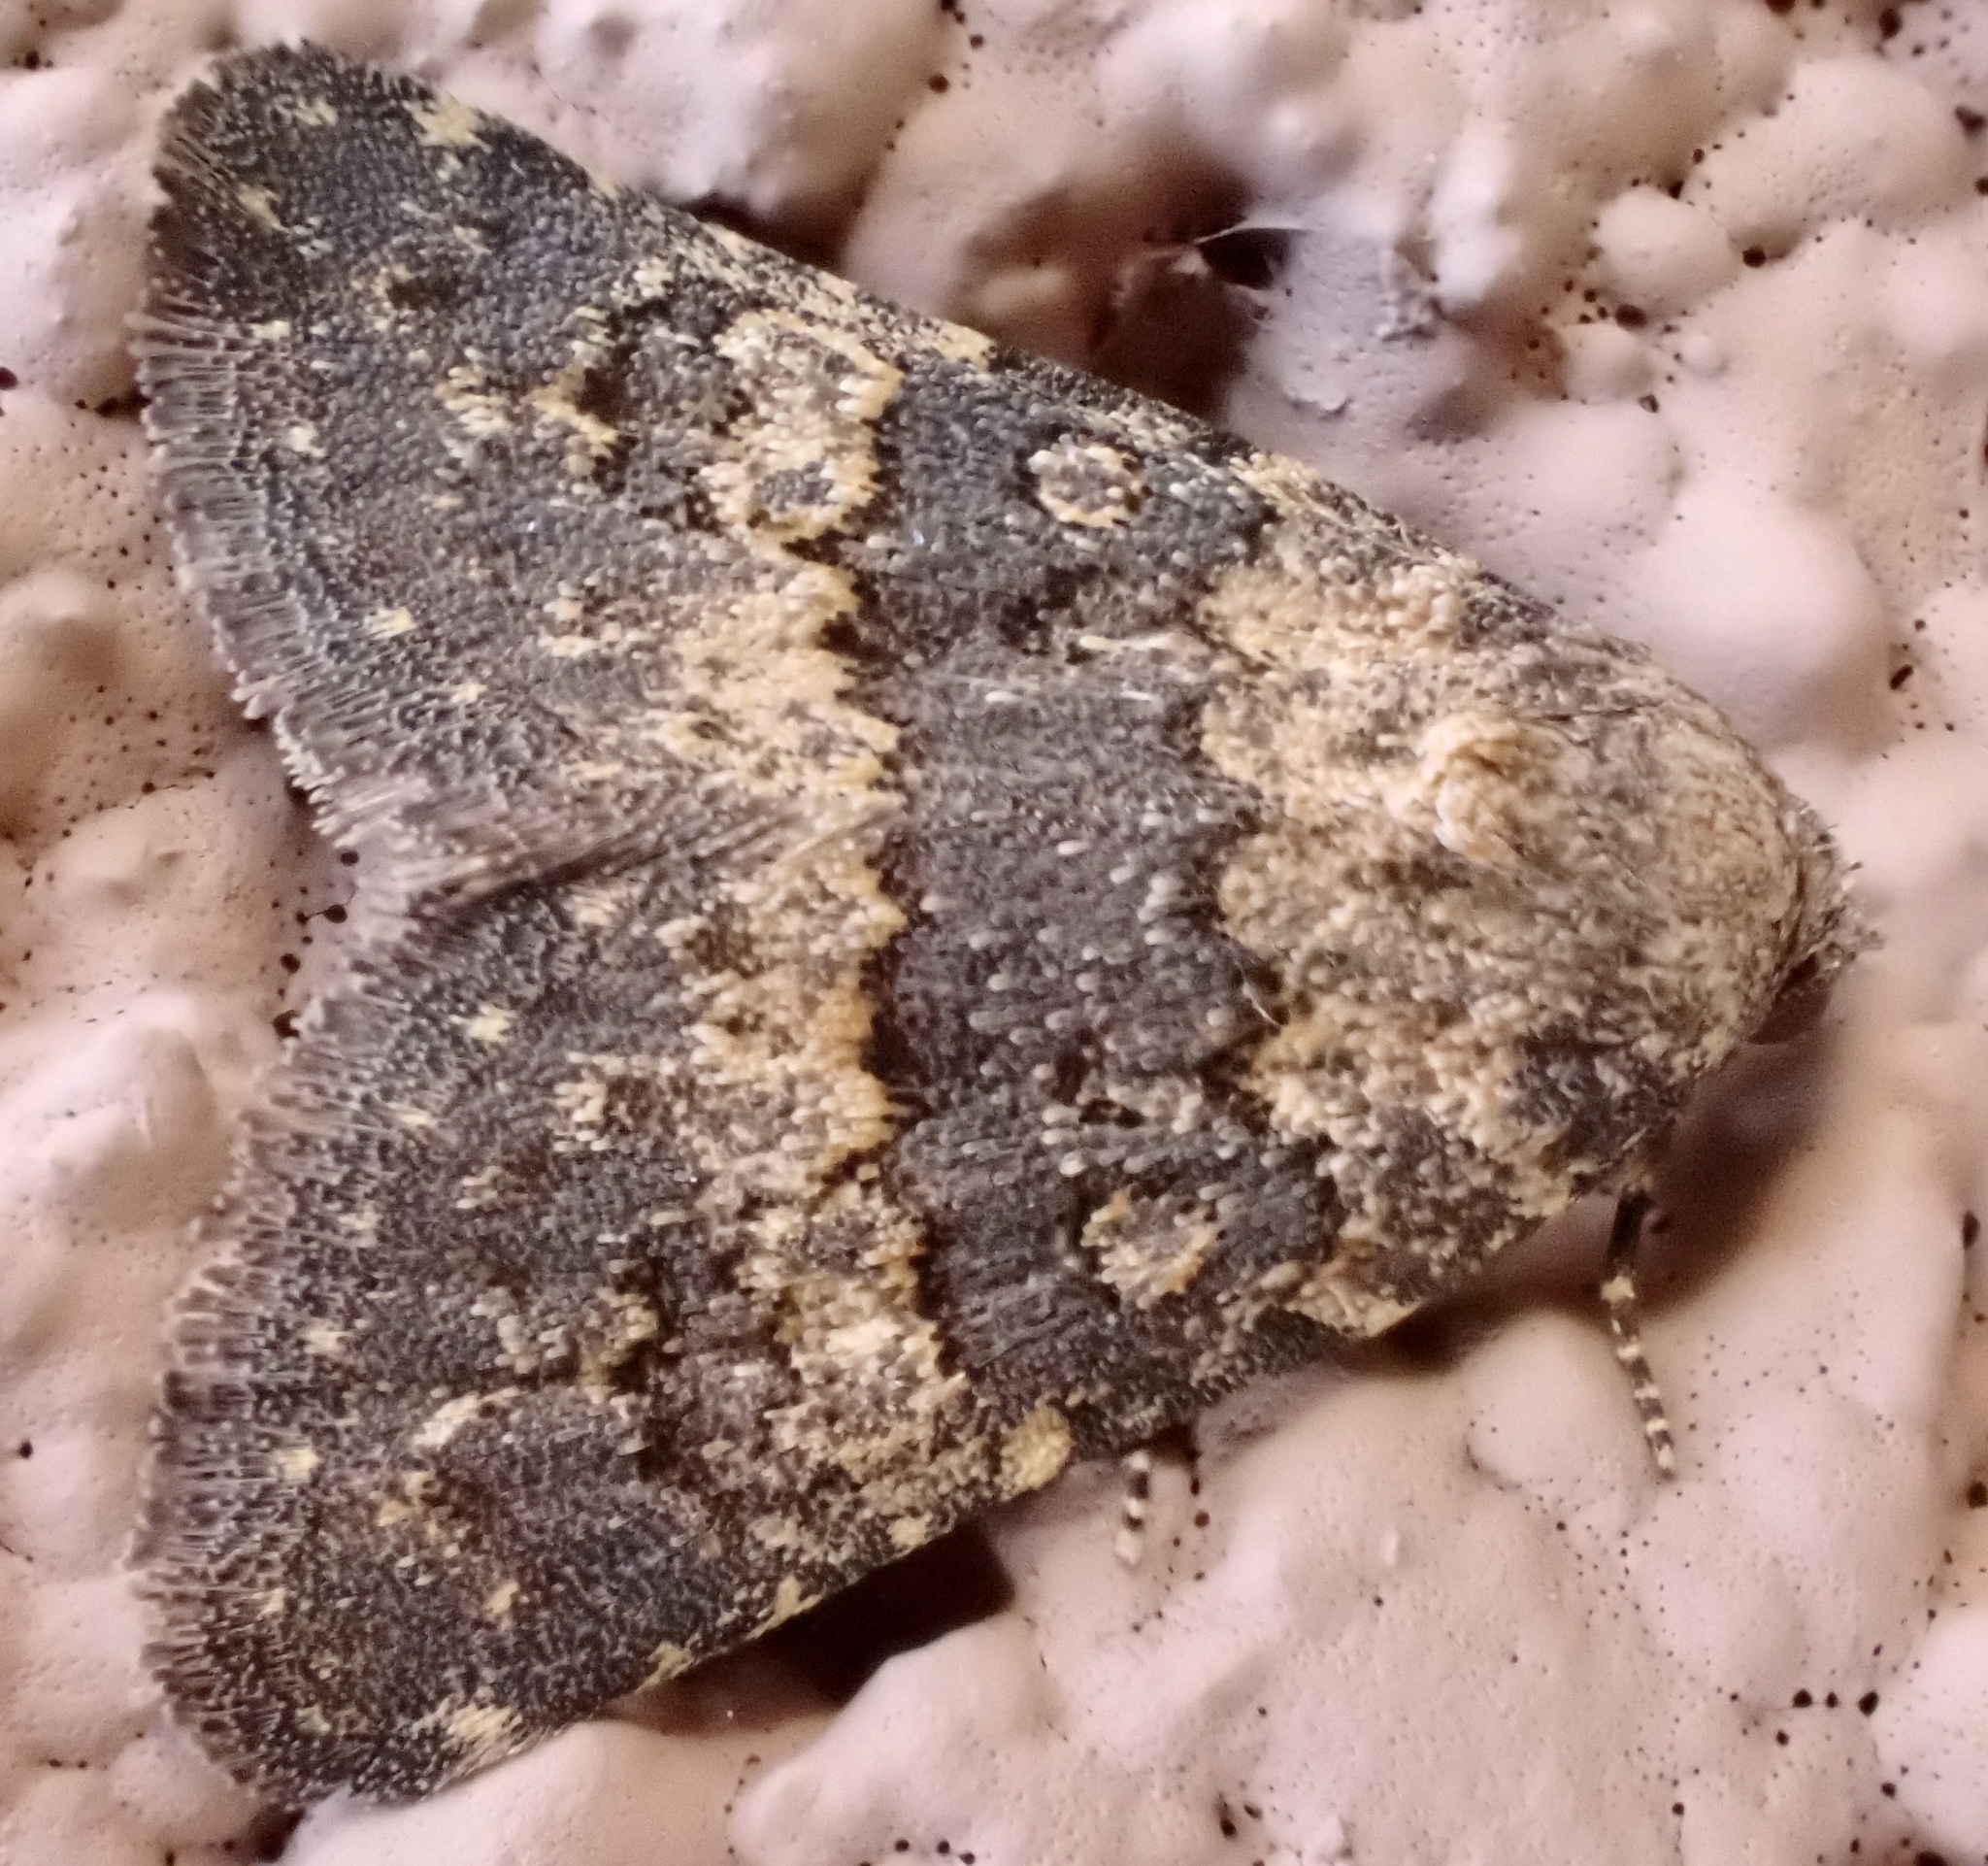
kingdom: Animalia
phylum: Arthropoda
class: Insecta
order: Lepidoptera
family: Noctuidae
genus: Duhemia
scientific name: Duhemia variegata
